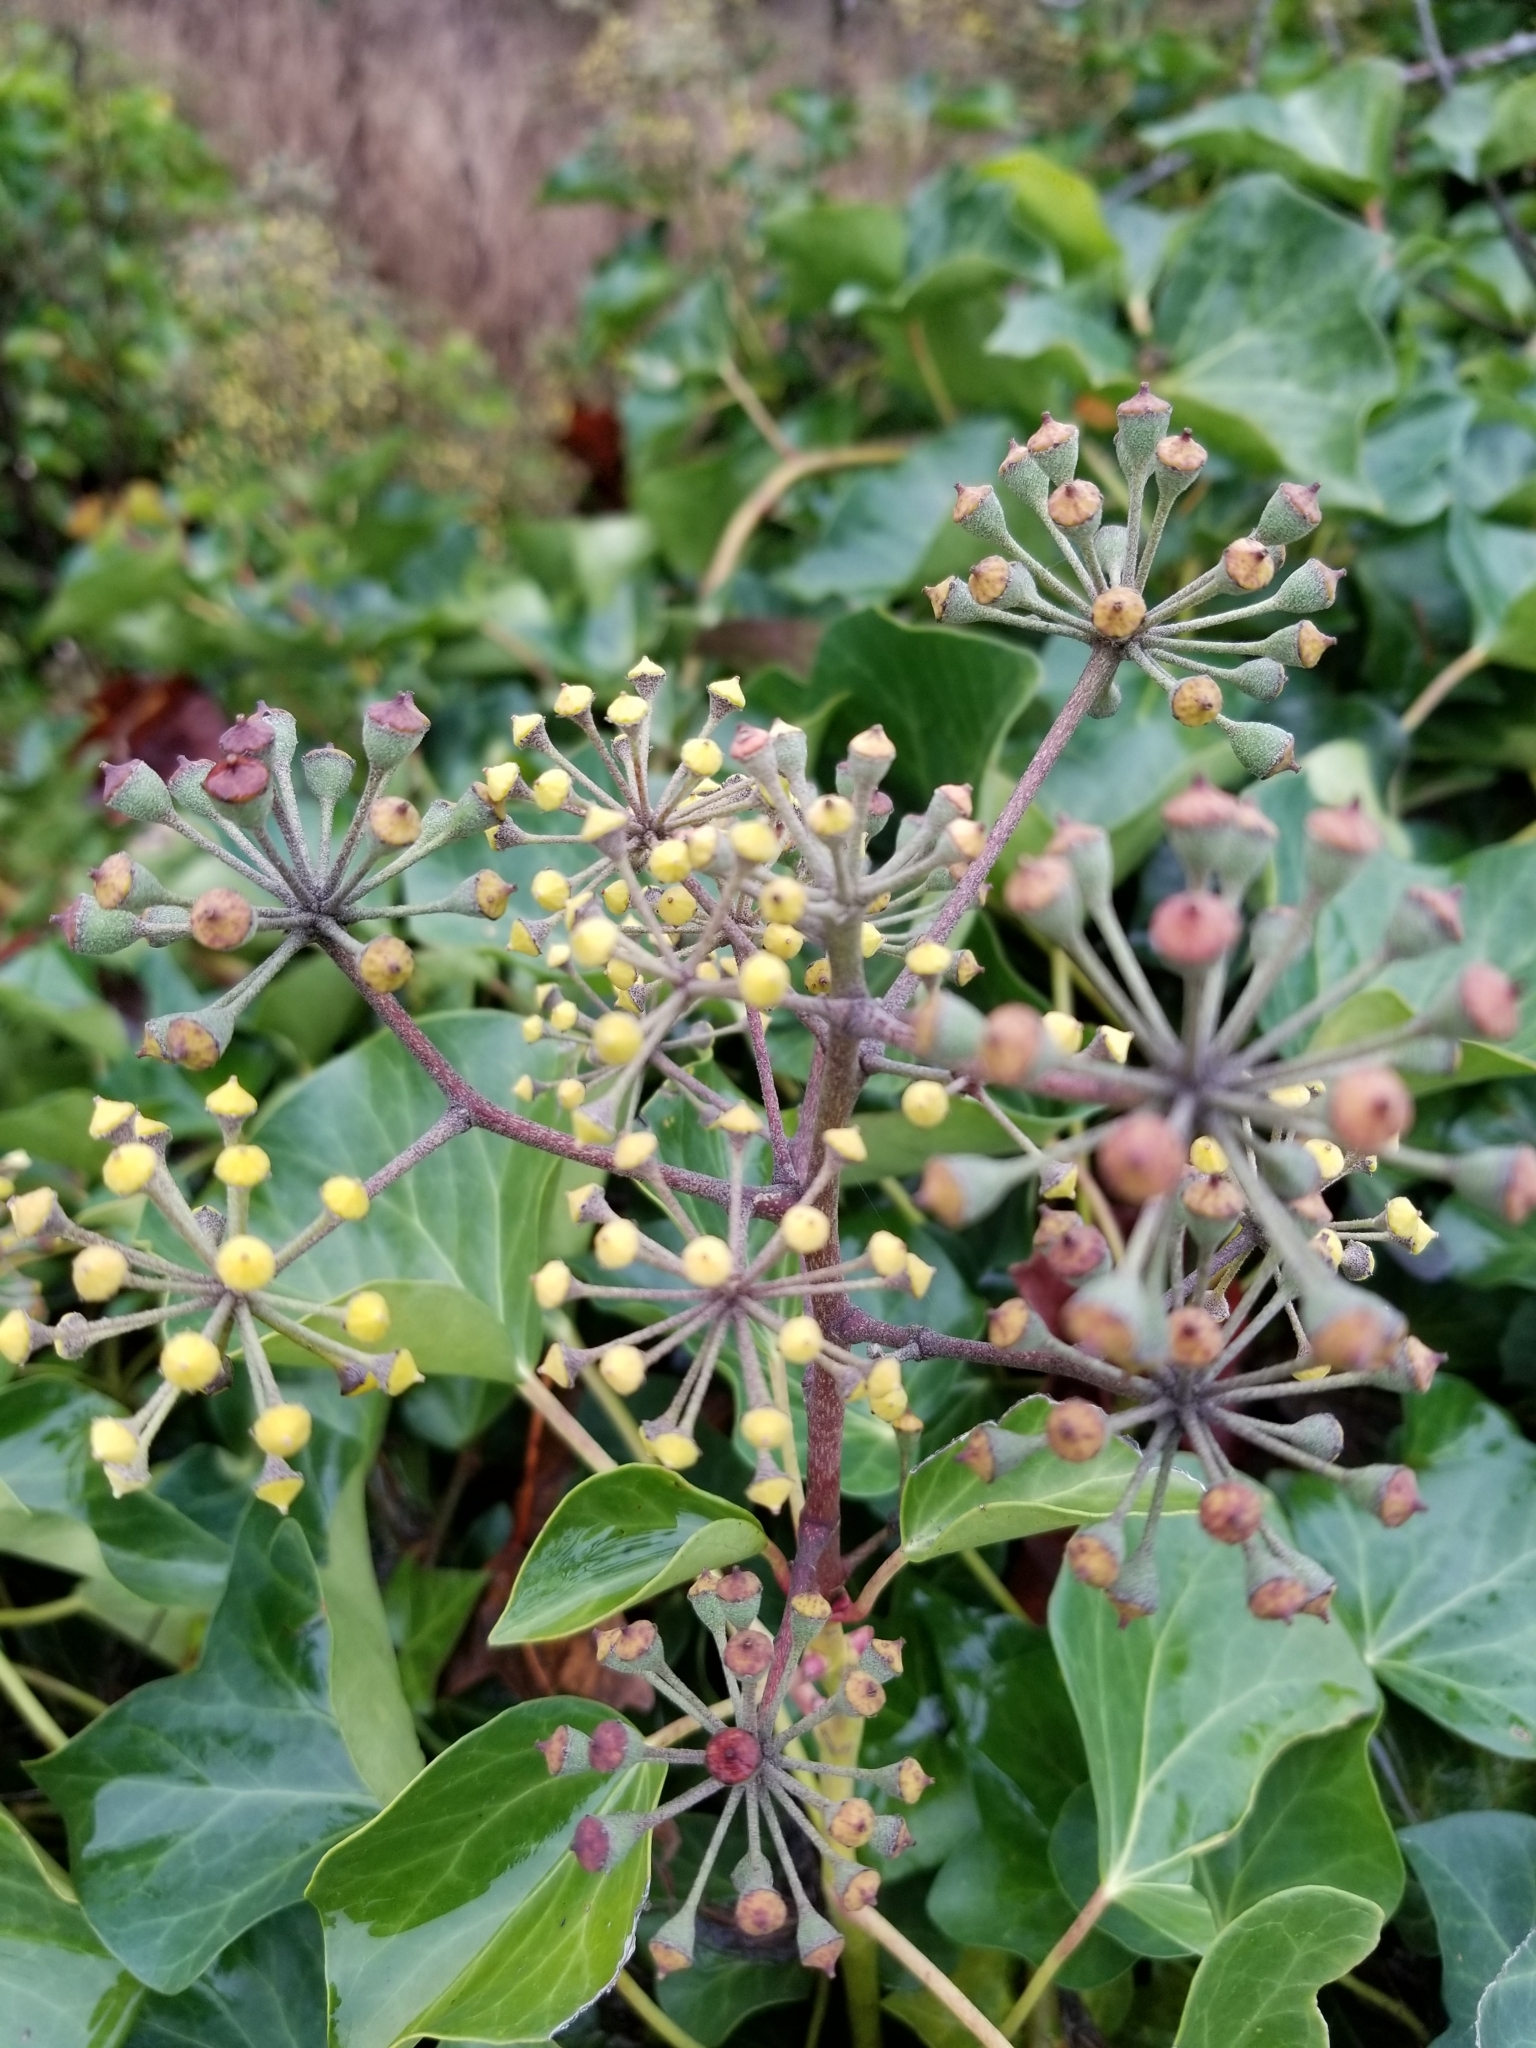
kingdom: Plantae
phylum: Tracheophyta
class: Magnoliopsida
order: Apiales
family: Araliaceae
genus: Hedera
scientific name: Hedera helix
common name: Ivy
